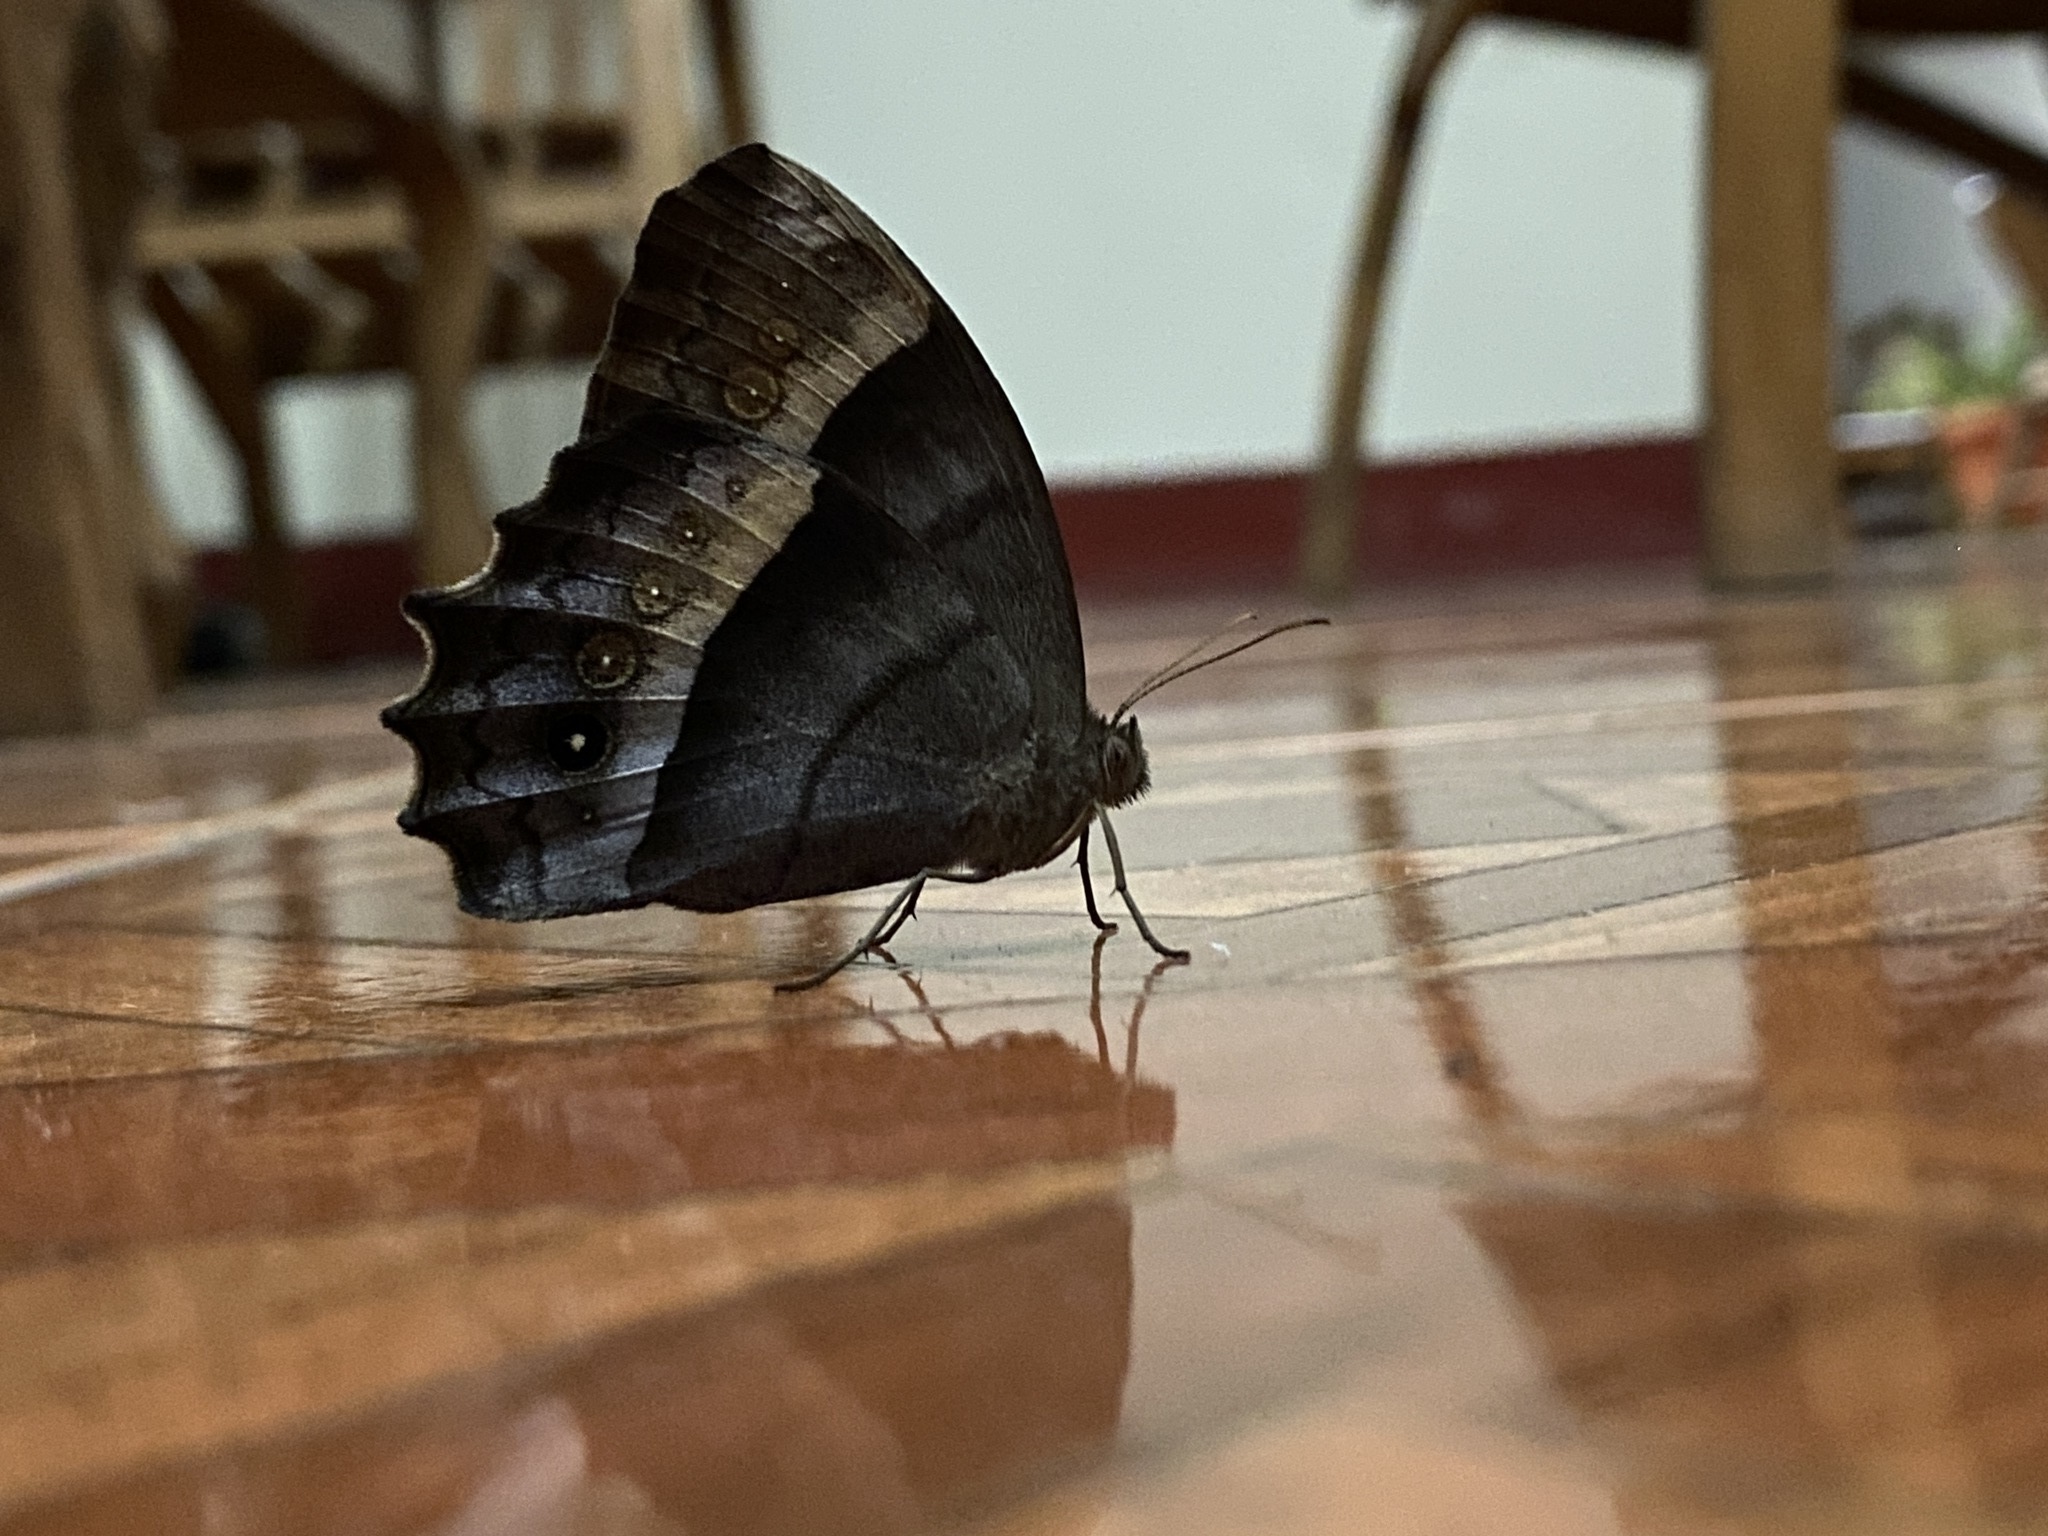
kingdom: Animalia
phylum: Arthropoda
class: Insecta
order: Lepidoptera
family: Nymphalidae
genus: Taygetis
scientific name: Taygetis andromeda
